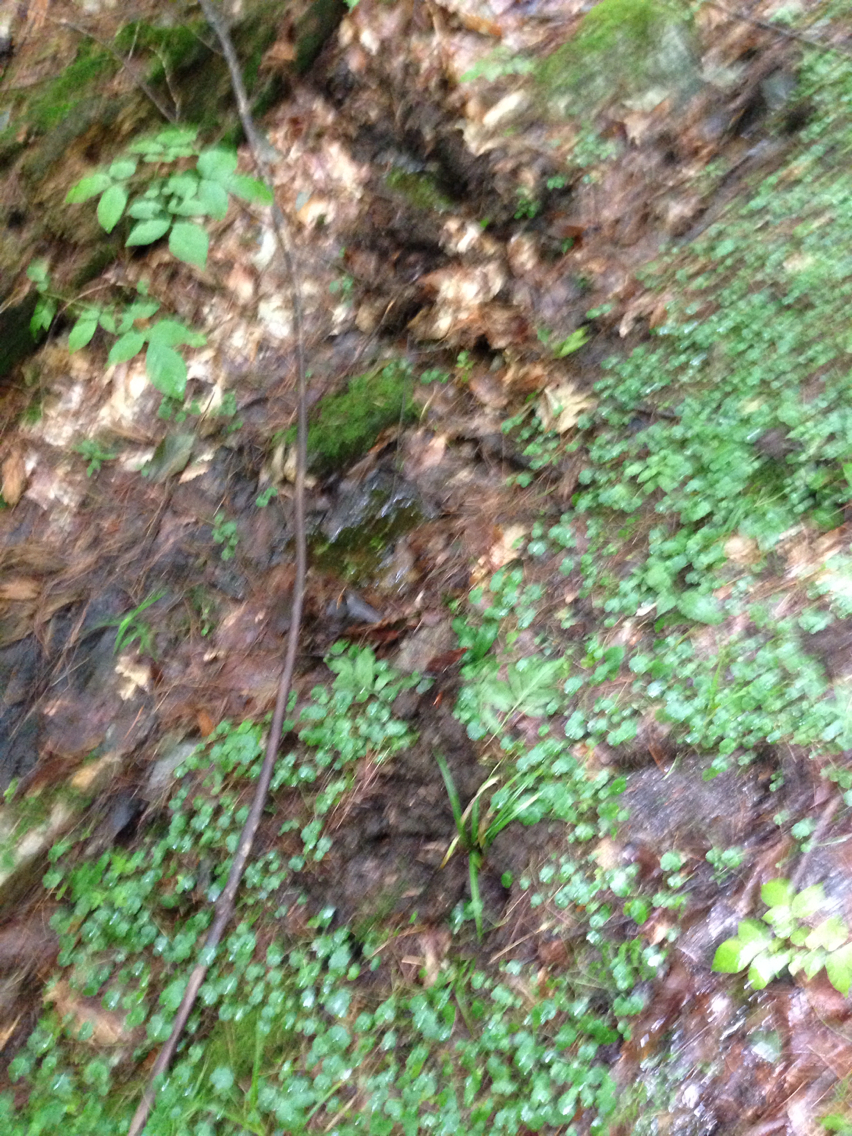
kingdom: Animalia
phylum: Chordata
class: Mammalia
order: Artiodactyla
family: Cervidae
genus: Alces
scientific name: Alces alces
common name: Moose
